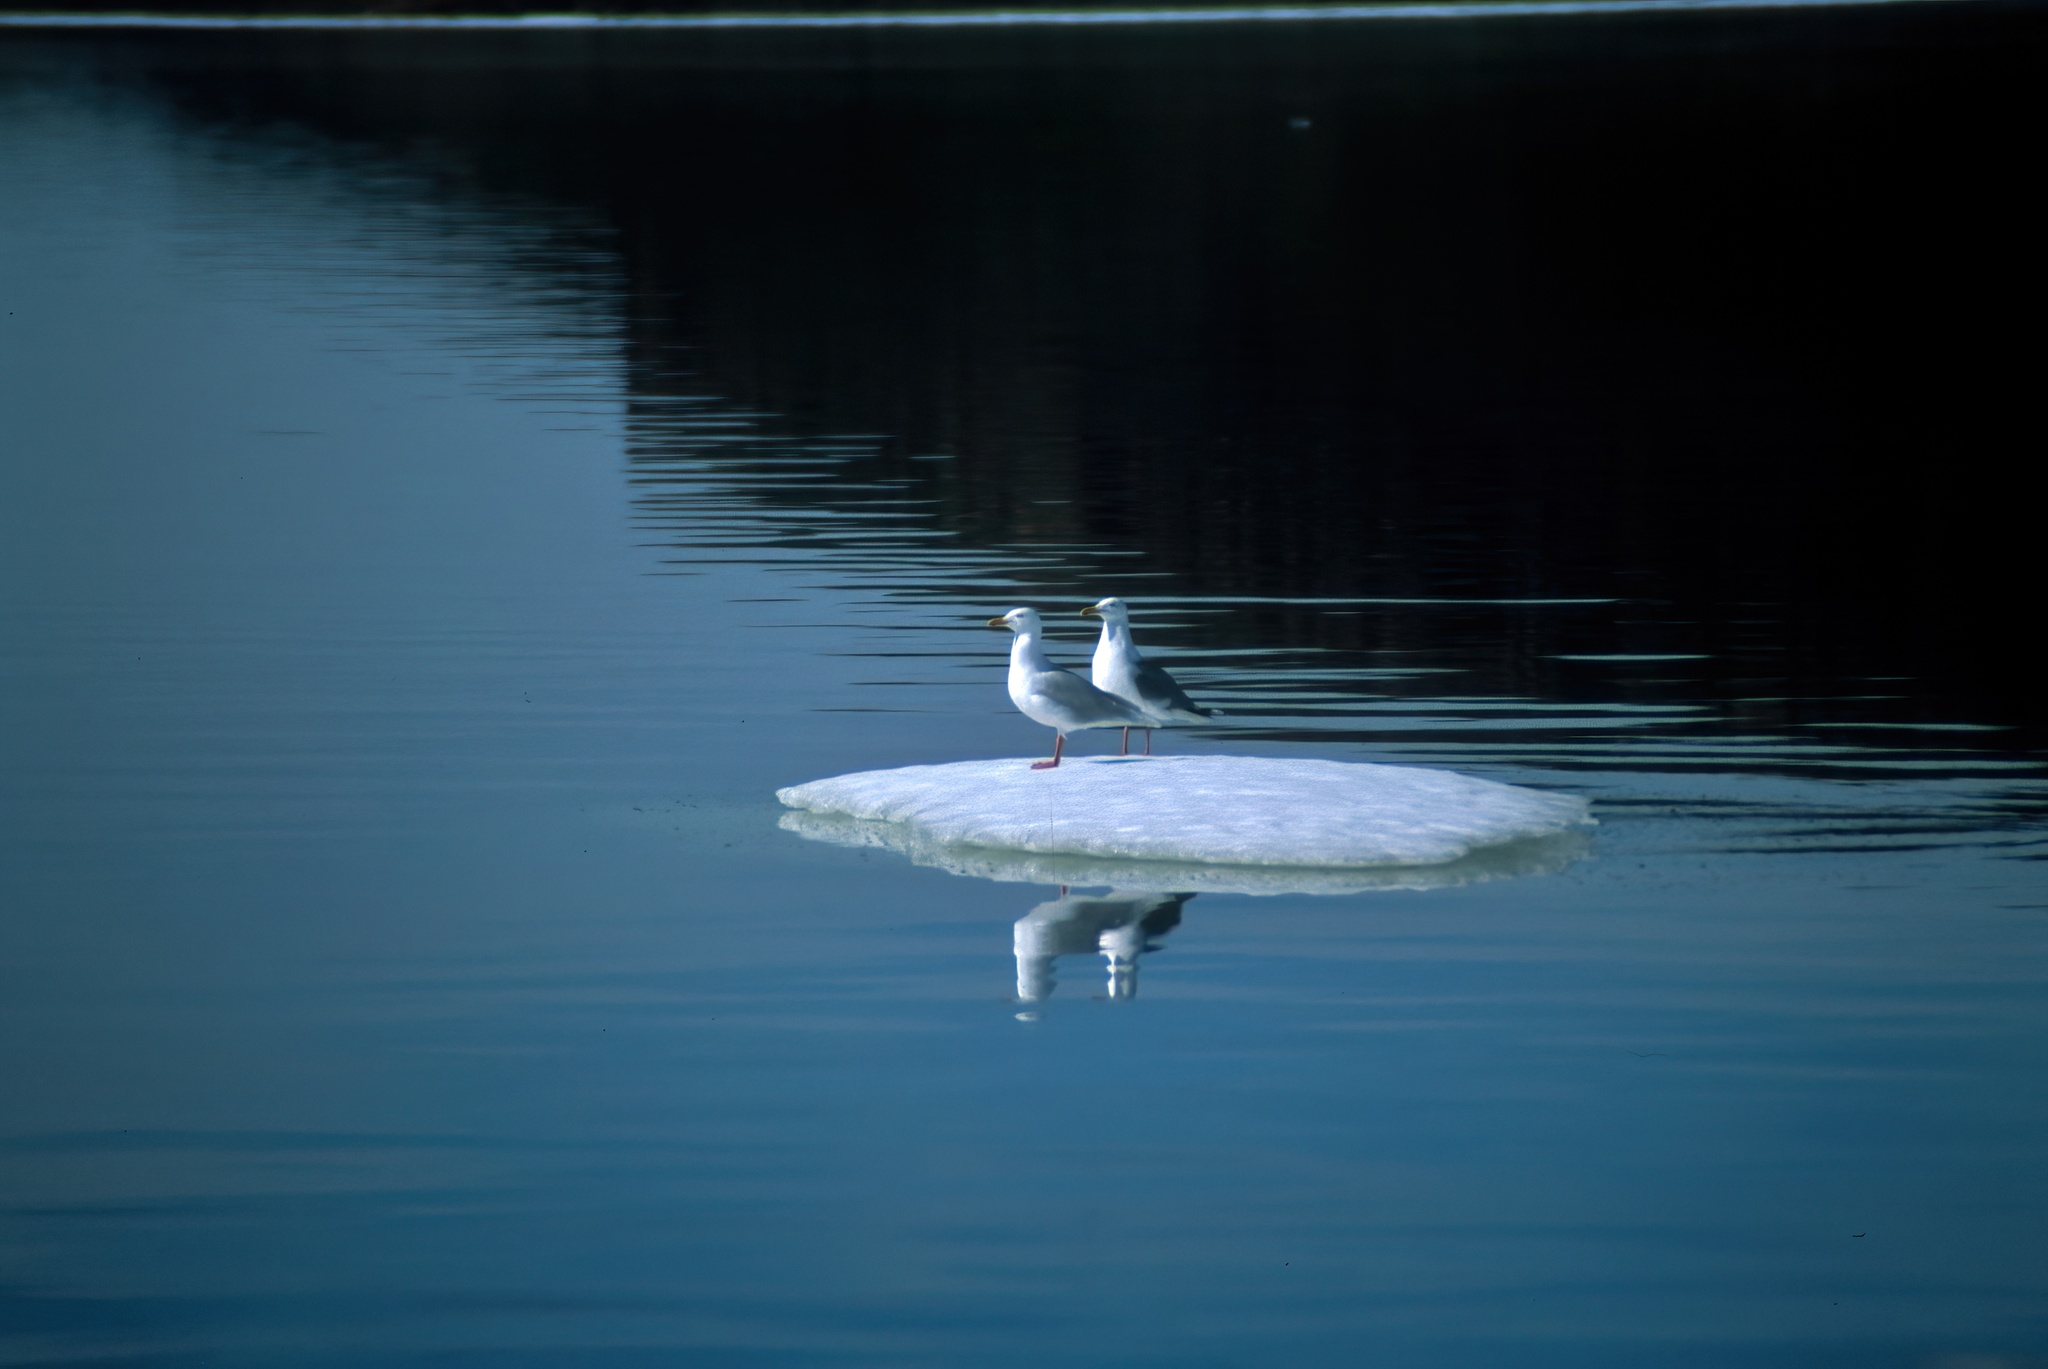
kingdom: Animalia
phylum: Chordata
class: Aves
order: Charadriiformes
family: Laridae
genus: Larus
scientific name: Larus argentatus
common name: Herring gull
